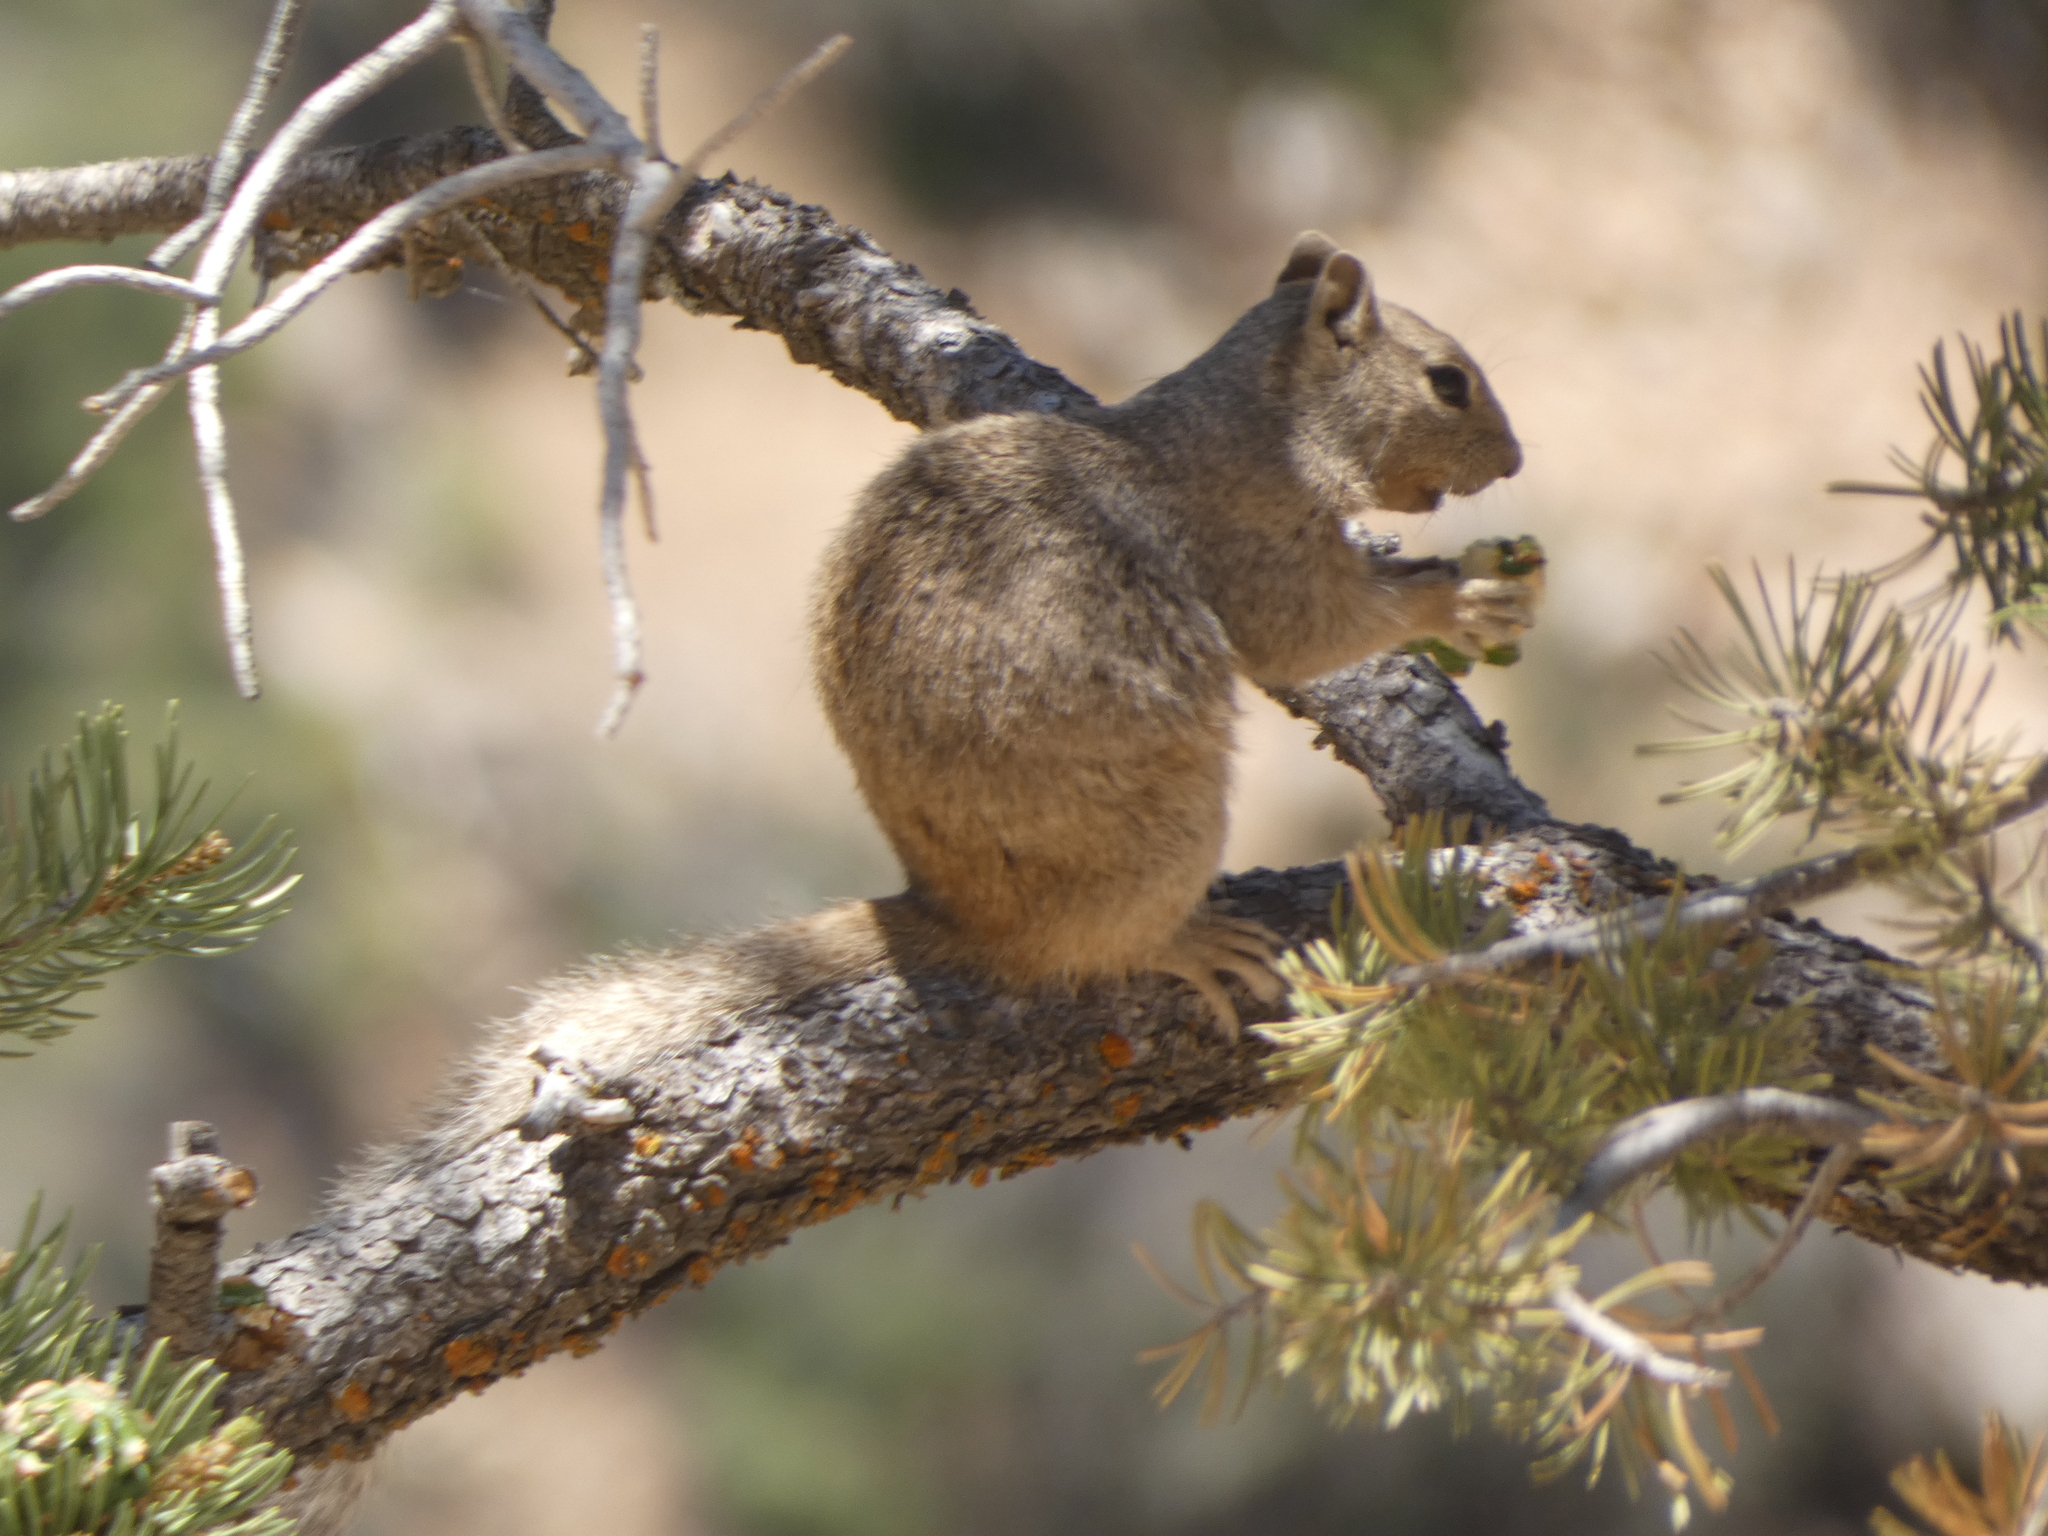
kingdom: Animalia
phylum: Chordata
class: Mammalia
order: Rodentia
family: Sciuridae
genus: Otospermophilus
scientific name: Otospermophilus variegatus
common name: Rock squirrel
